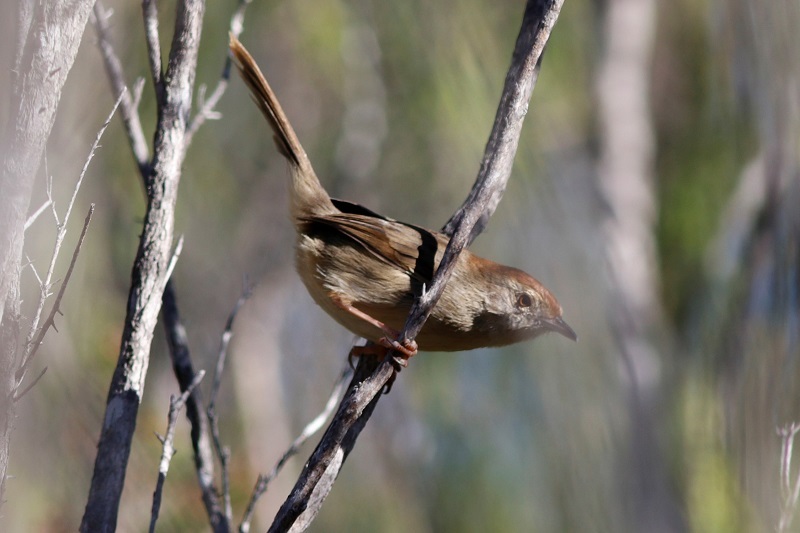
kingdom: Animalia
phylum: Chordata
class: Aves
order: Passeriformes
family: Cisticolidae
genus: Cisticola
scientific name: Cisticola aberrans
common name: Lazy cisticola
